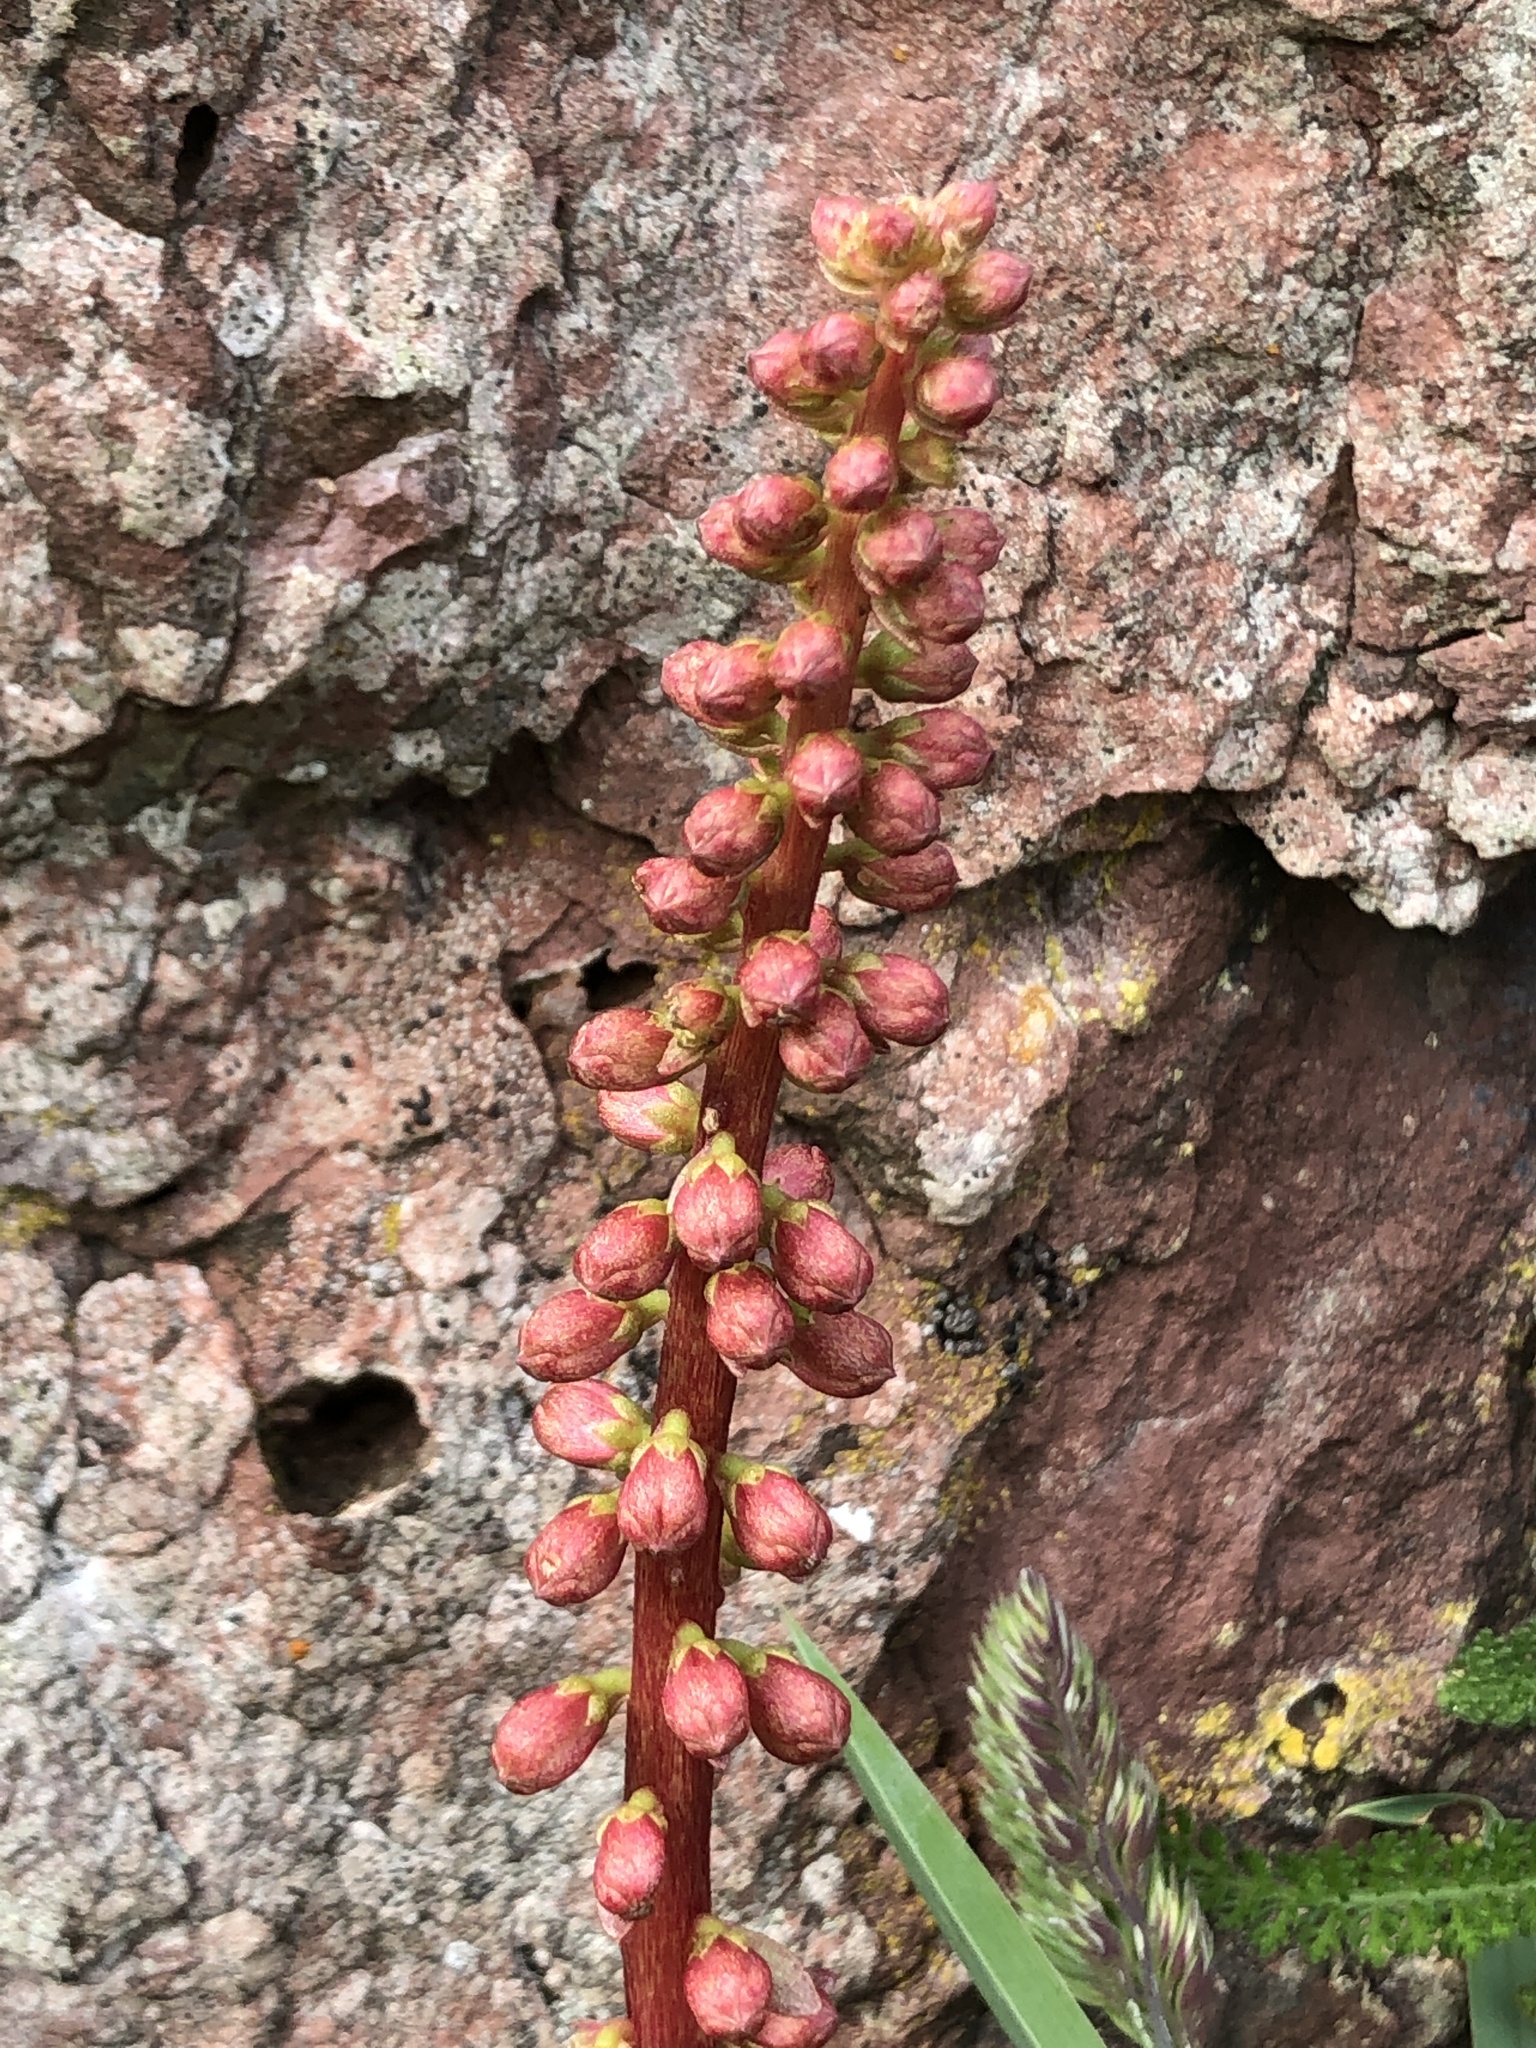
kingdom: Plantae
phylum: Tracheophyta
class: Magnoliopsida
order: Saxifragales
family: Crassulaceae
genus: Umbilicus
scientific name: Umbilicus rupestris
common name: Navelwort
